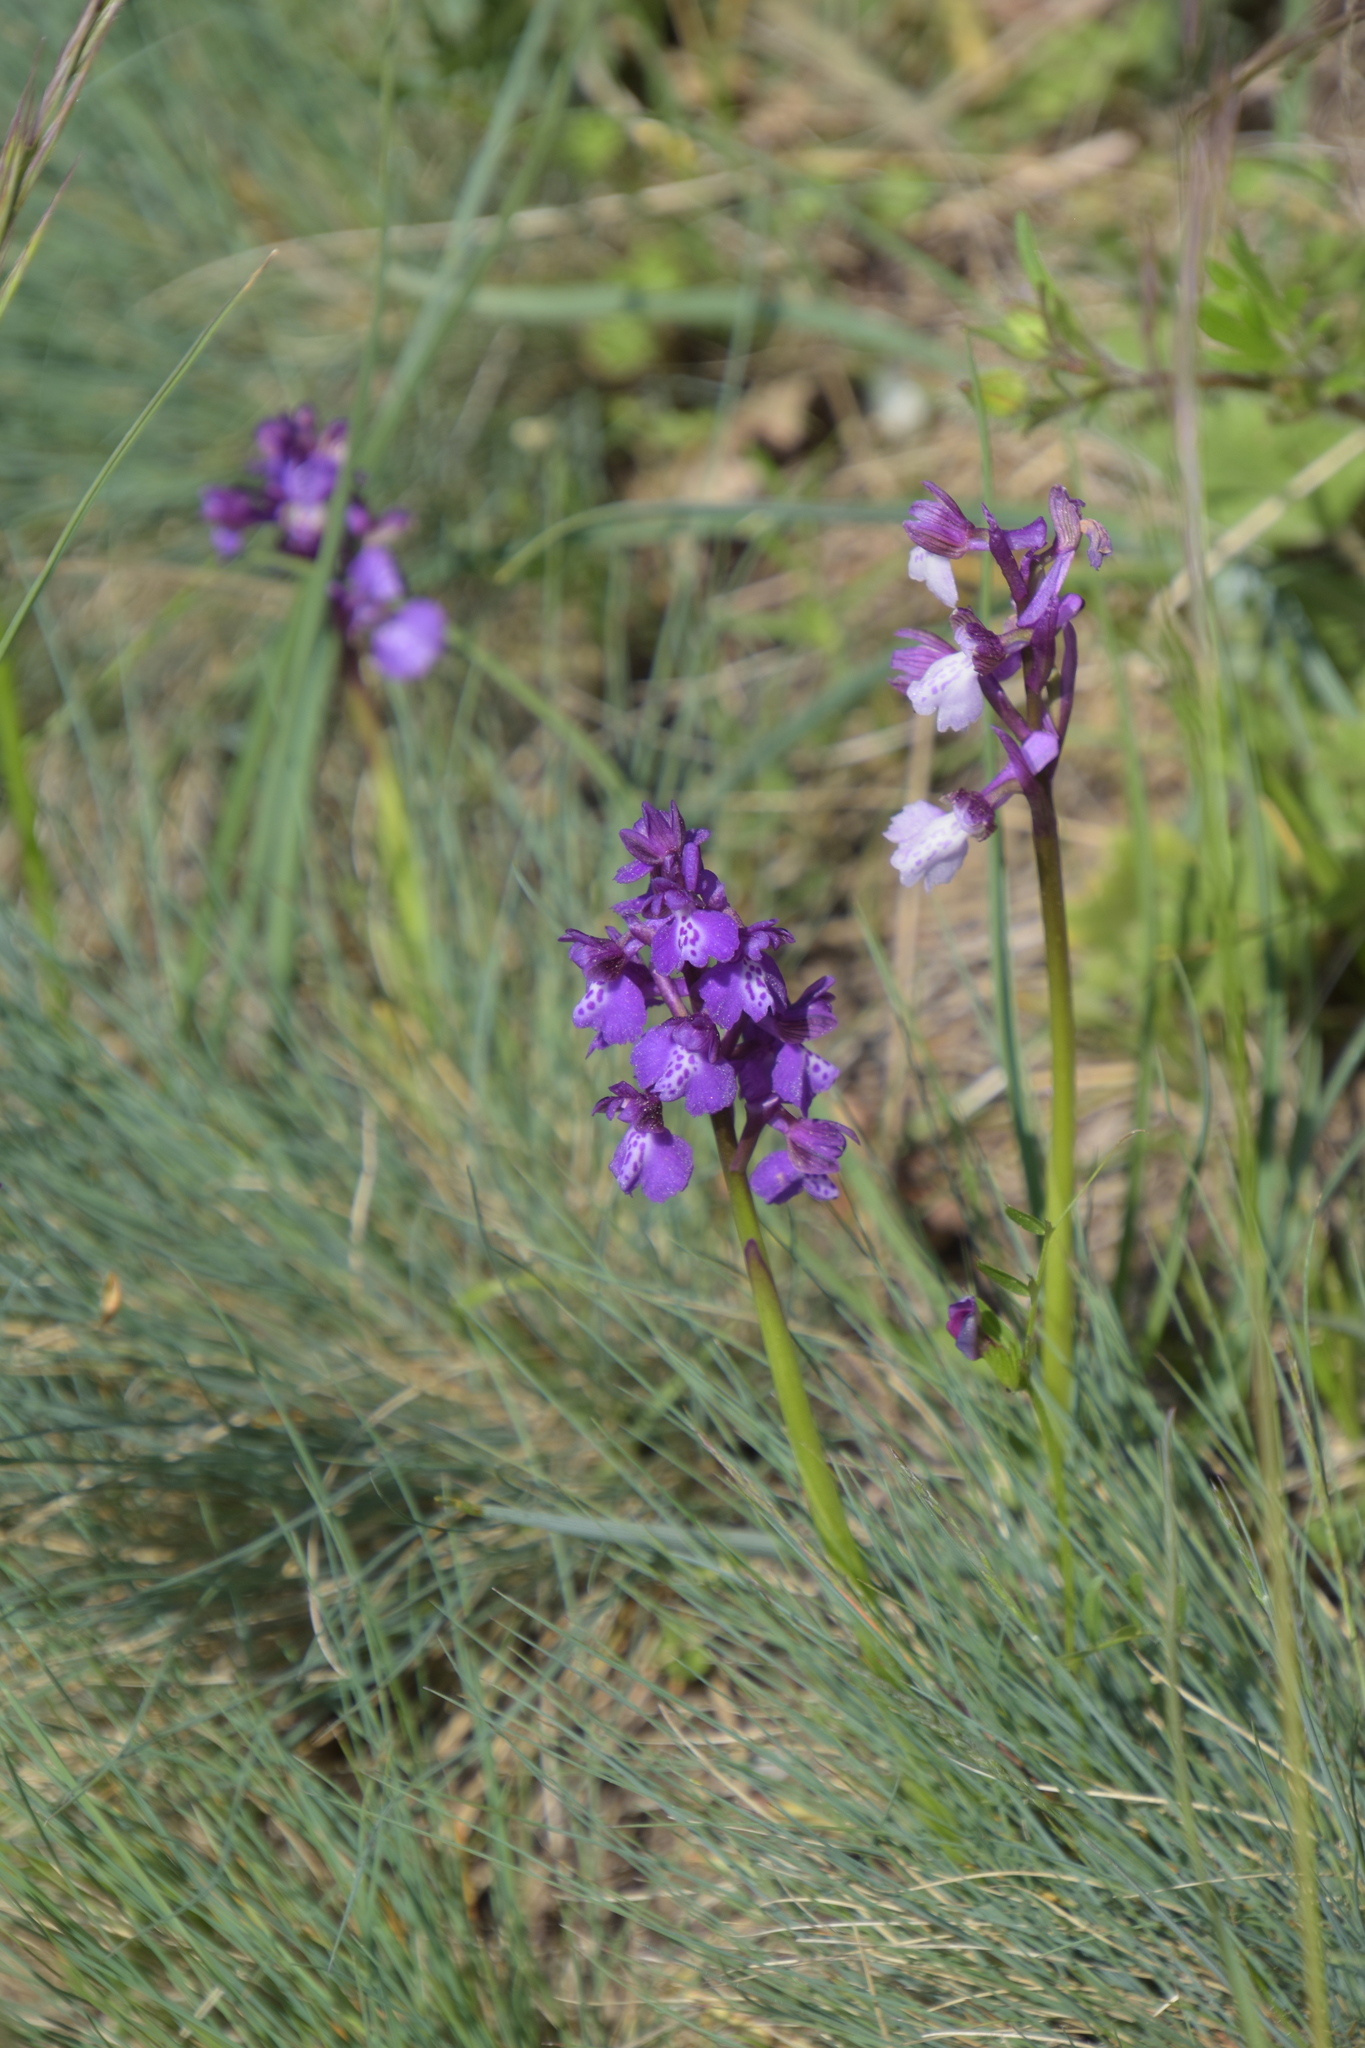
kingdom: Plantae
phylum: Tracheophyta
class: Liliopsida
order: Asparagales
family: Orchidaceae
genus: Anacamptis
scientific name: Anacamptis morio
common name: Green-winged orchid
